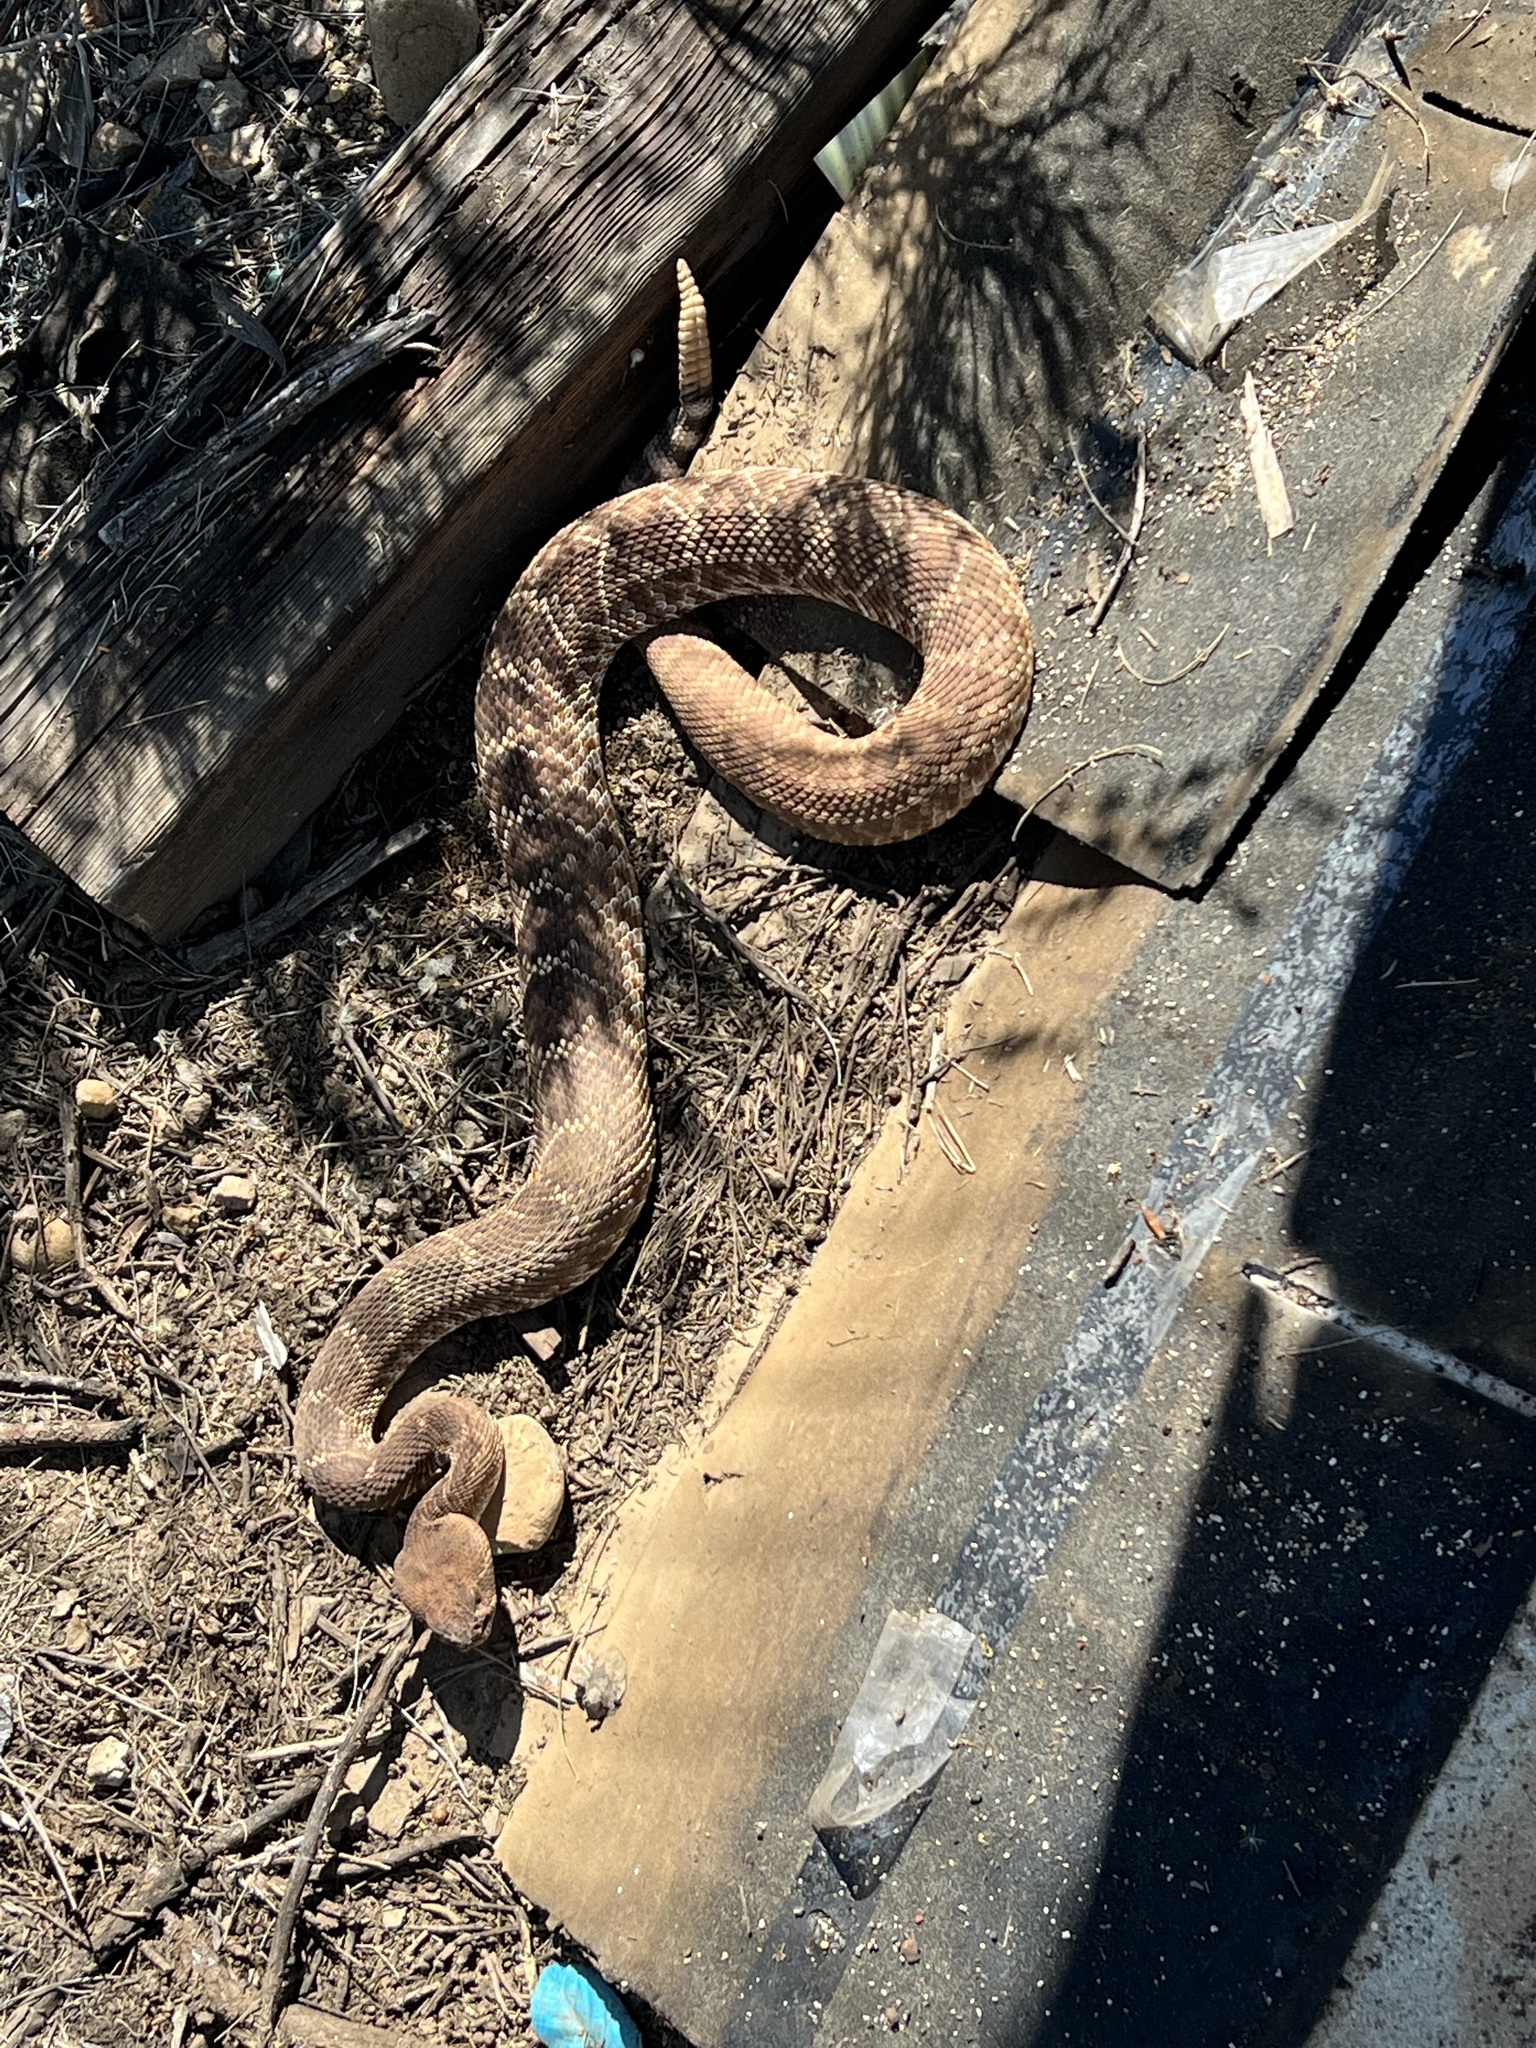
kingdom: Animalia
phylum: Chordata
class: Squamata
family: Viperidae
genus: Crotalus
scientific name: Crotalus ruber
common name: Red diamond rattlesnake
